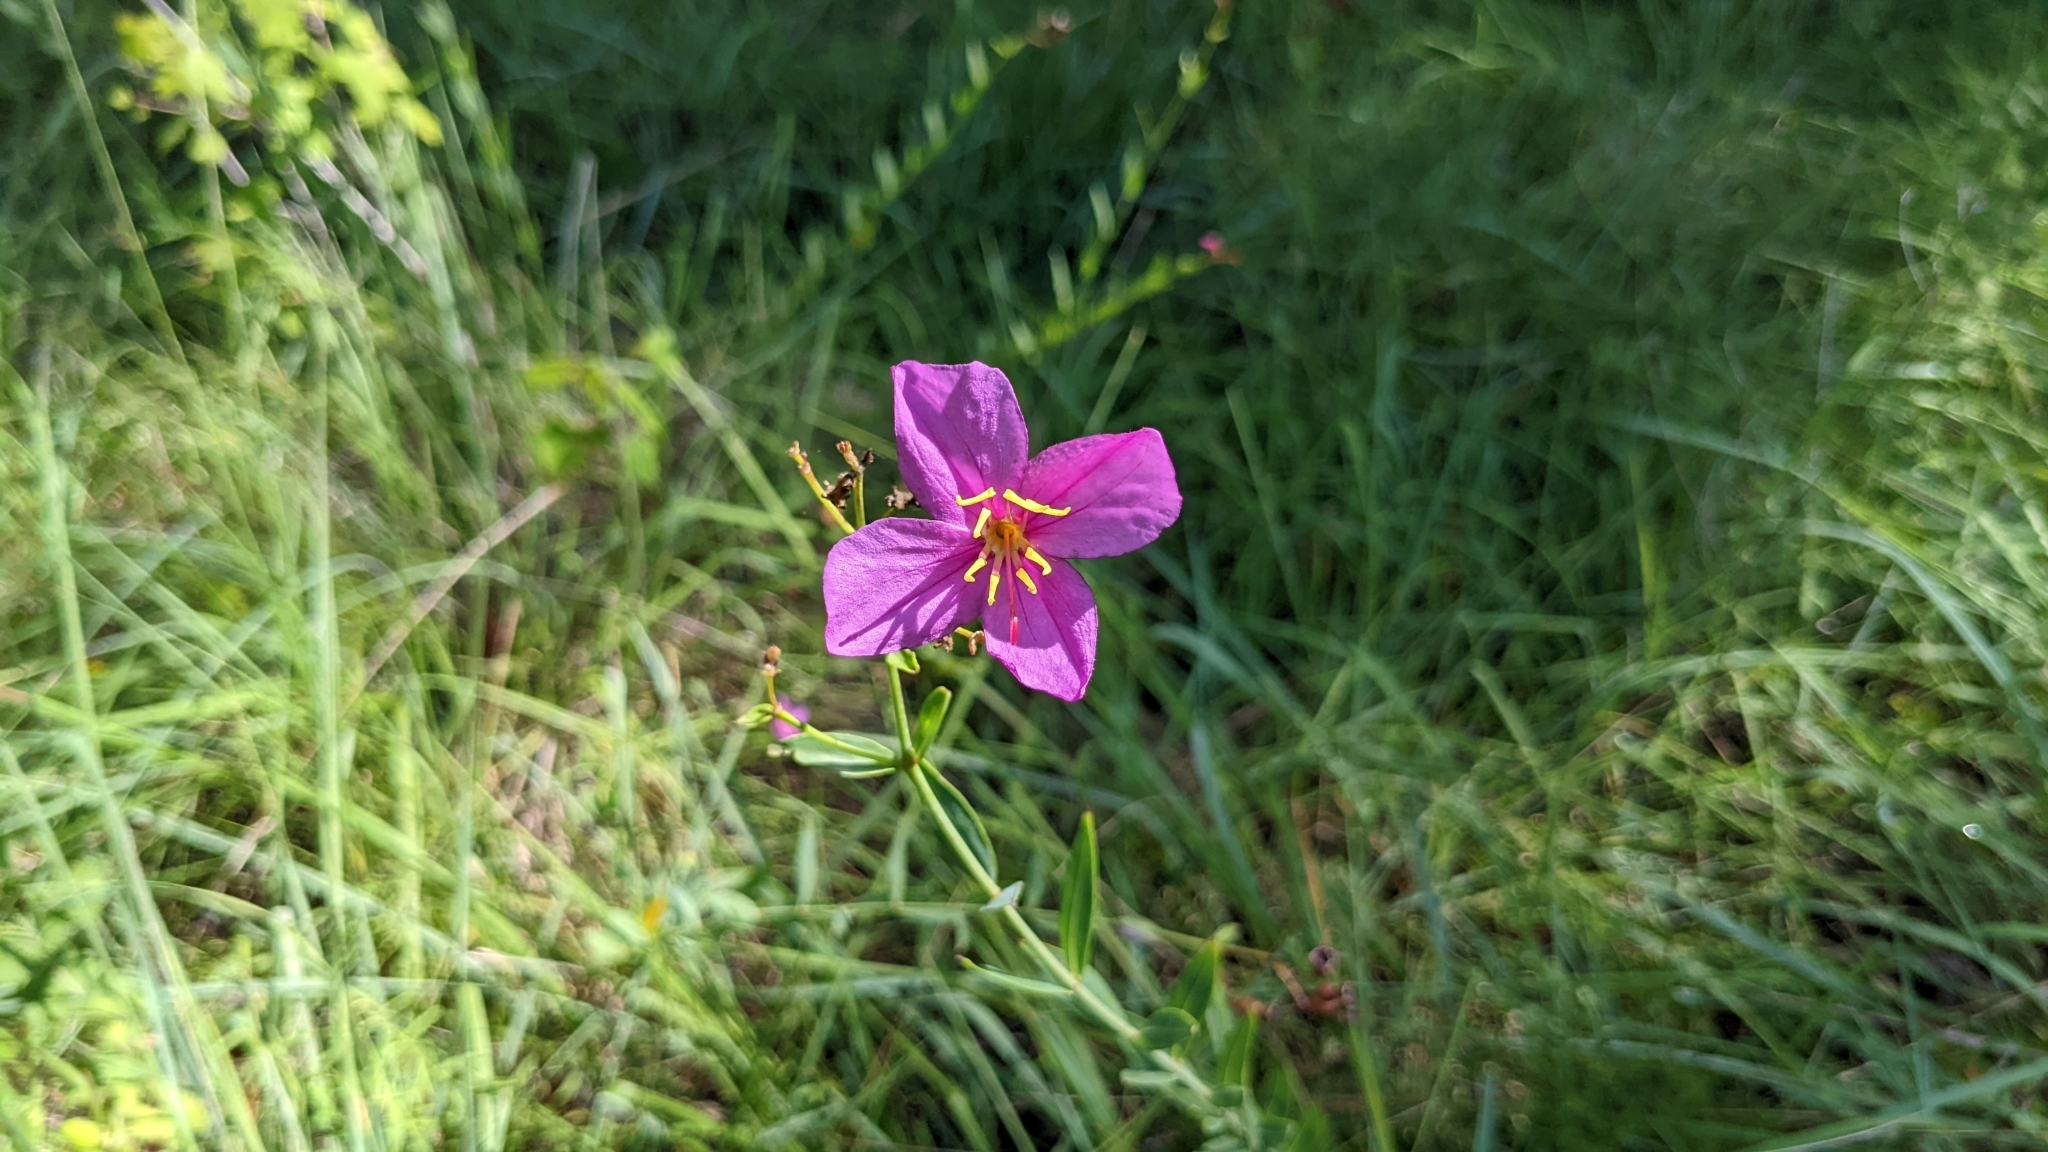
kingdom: Plantae
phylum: Tracheophyta
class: Magnoliopsida
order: Myrtales
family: Melastomataceae
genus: Rhexia
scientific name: Rhexia alifanus
